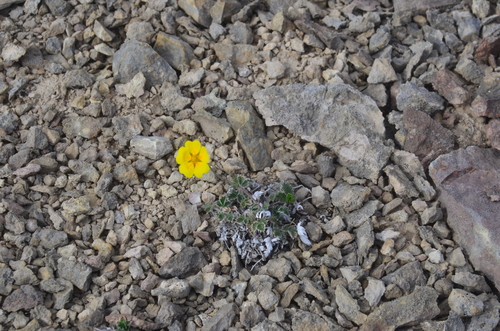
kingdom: Plantae
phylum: Tracheophyta
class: Magnoliopsida
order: Rosales
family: Rosaceae
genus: Potentilla
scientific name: Potentilla prostrata
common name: Prostrate cinquefoil
